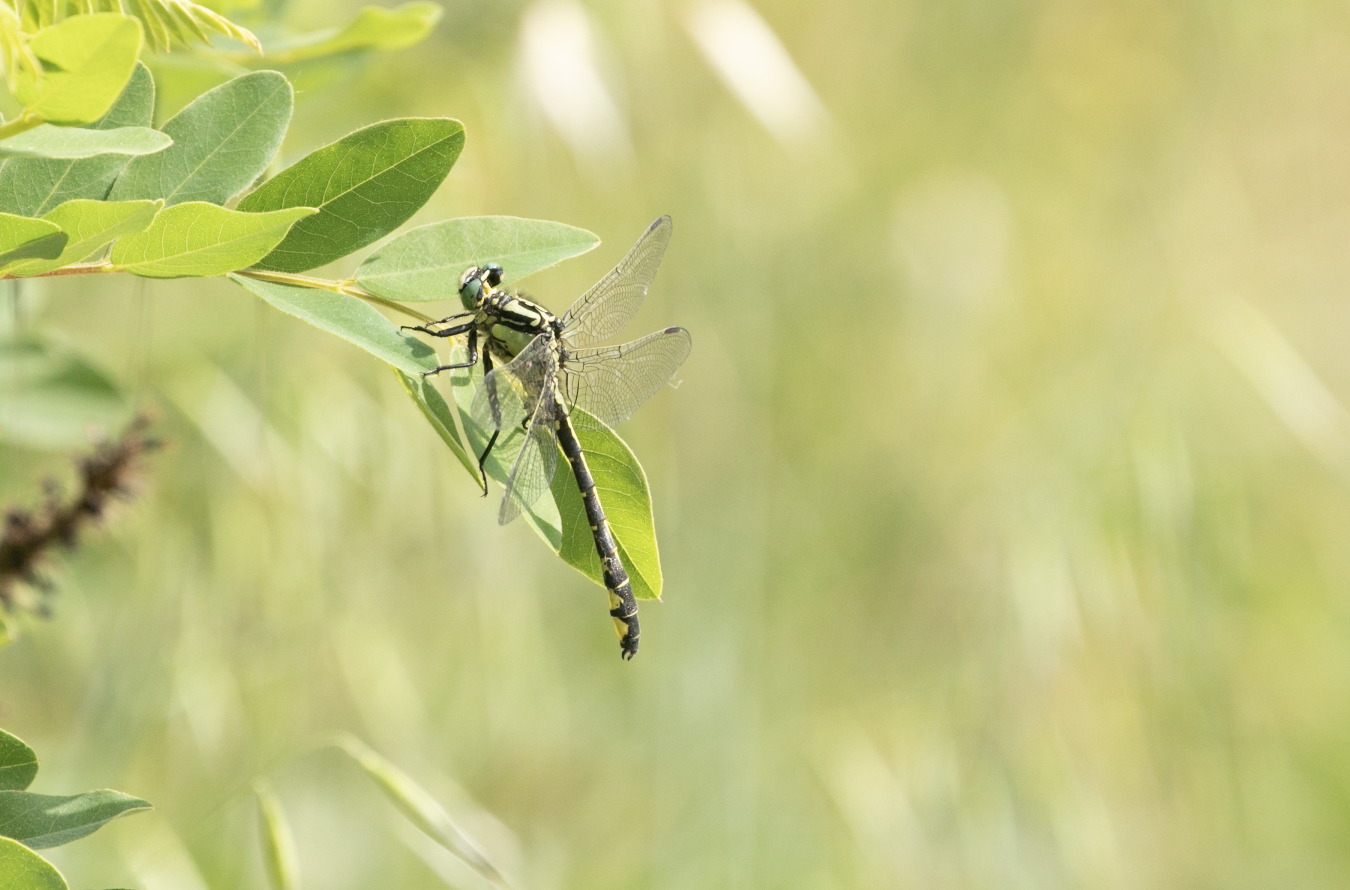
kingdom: Animalia
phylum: Arthropoda
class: Insecta
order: Odonata
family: Gomphidae
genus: Gomphus
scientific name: Gomphus vulgatissimus
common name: Club-tailed dragonfly
